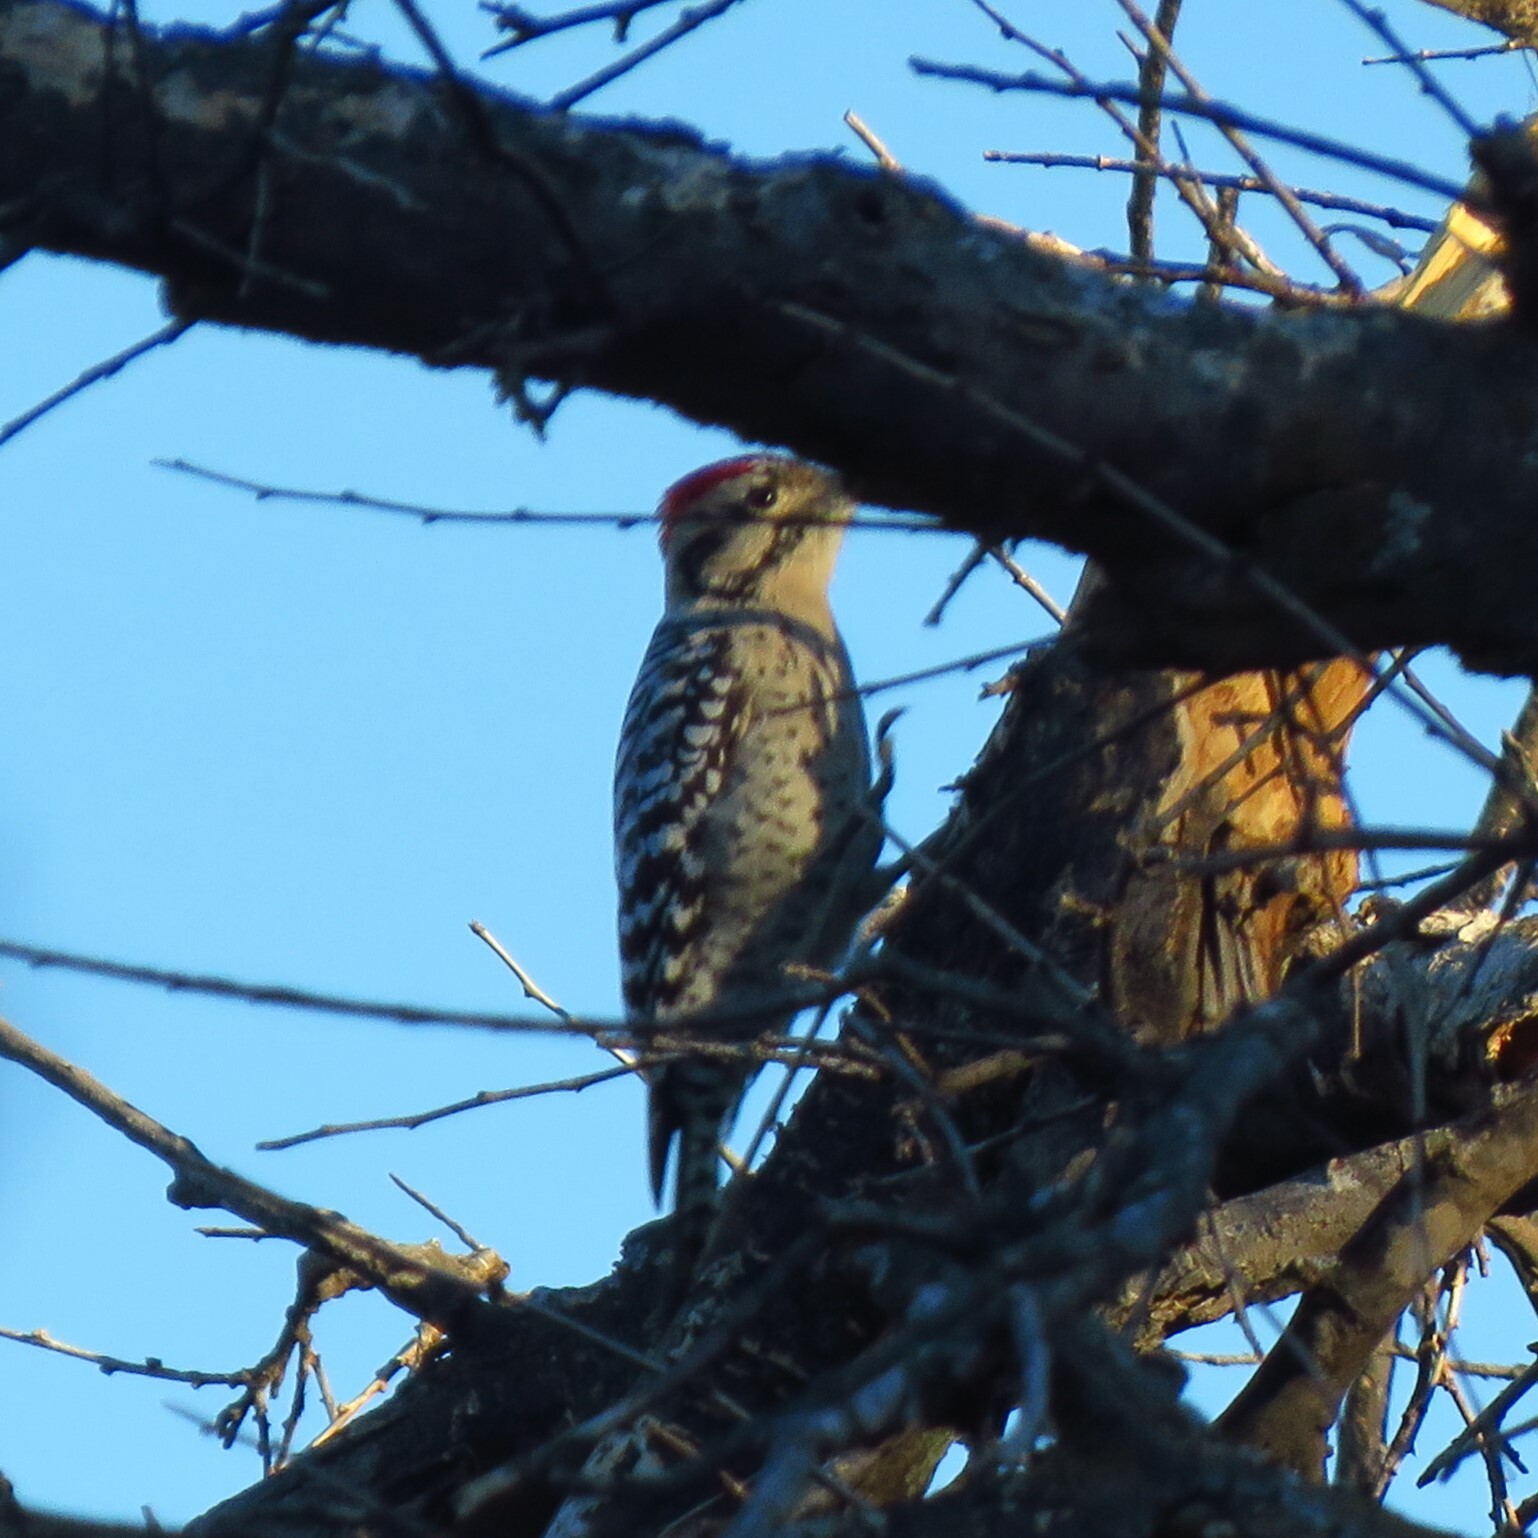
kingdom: Animalia
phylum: Chordata
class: Aves
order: Piciformes
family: Picidae
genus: Dryobates
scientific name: Dryobates scalaris
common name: Ladder-backed woodpecker
